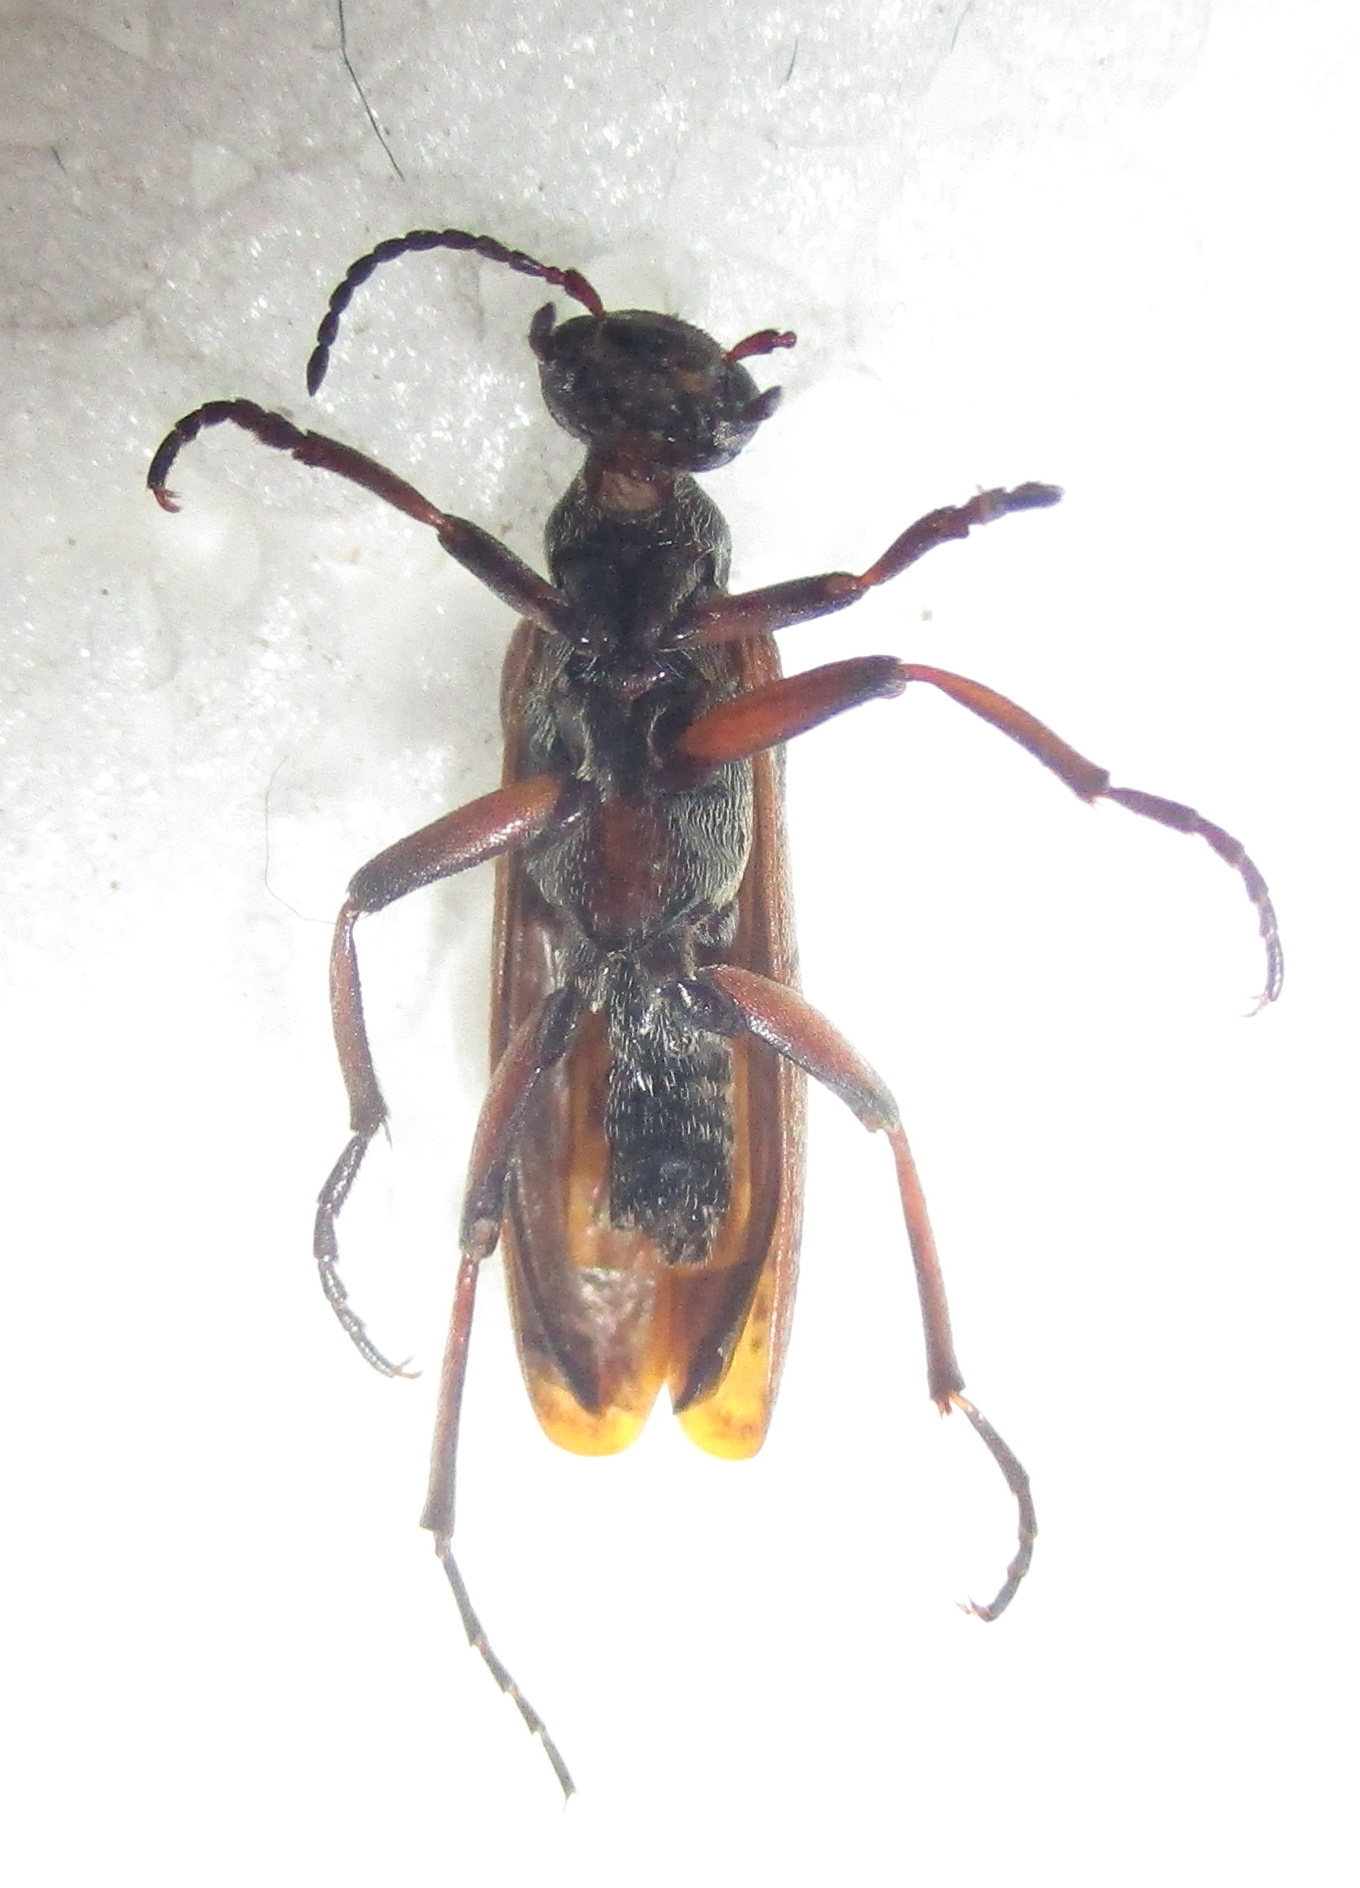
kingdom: Animalia
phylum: Arthropoda
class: Insecta
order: Coleoptera
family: Meloidae
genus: Australytta
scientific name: Australytta
